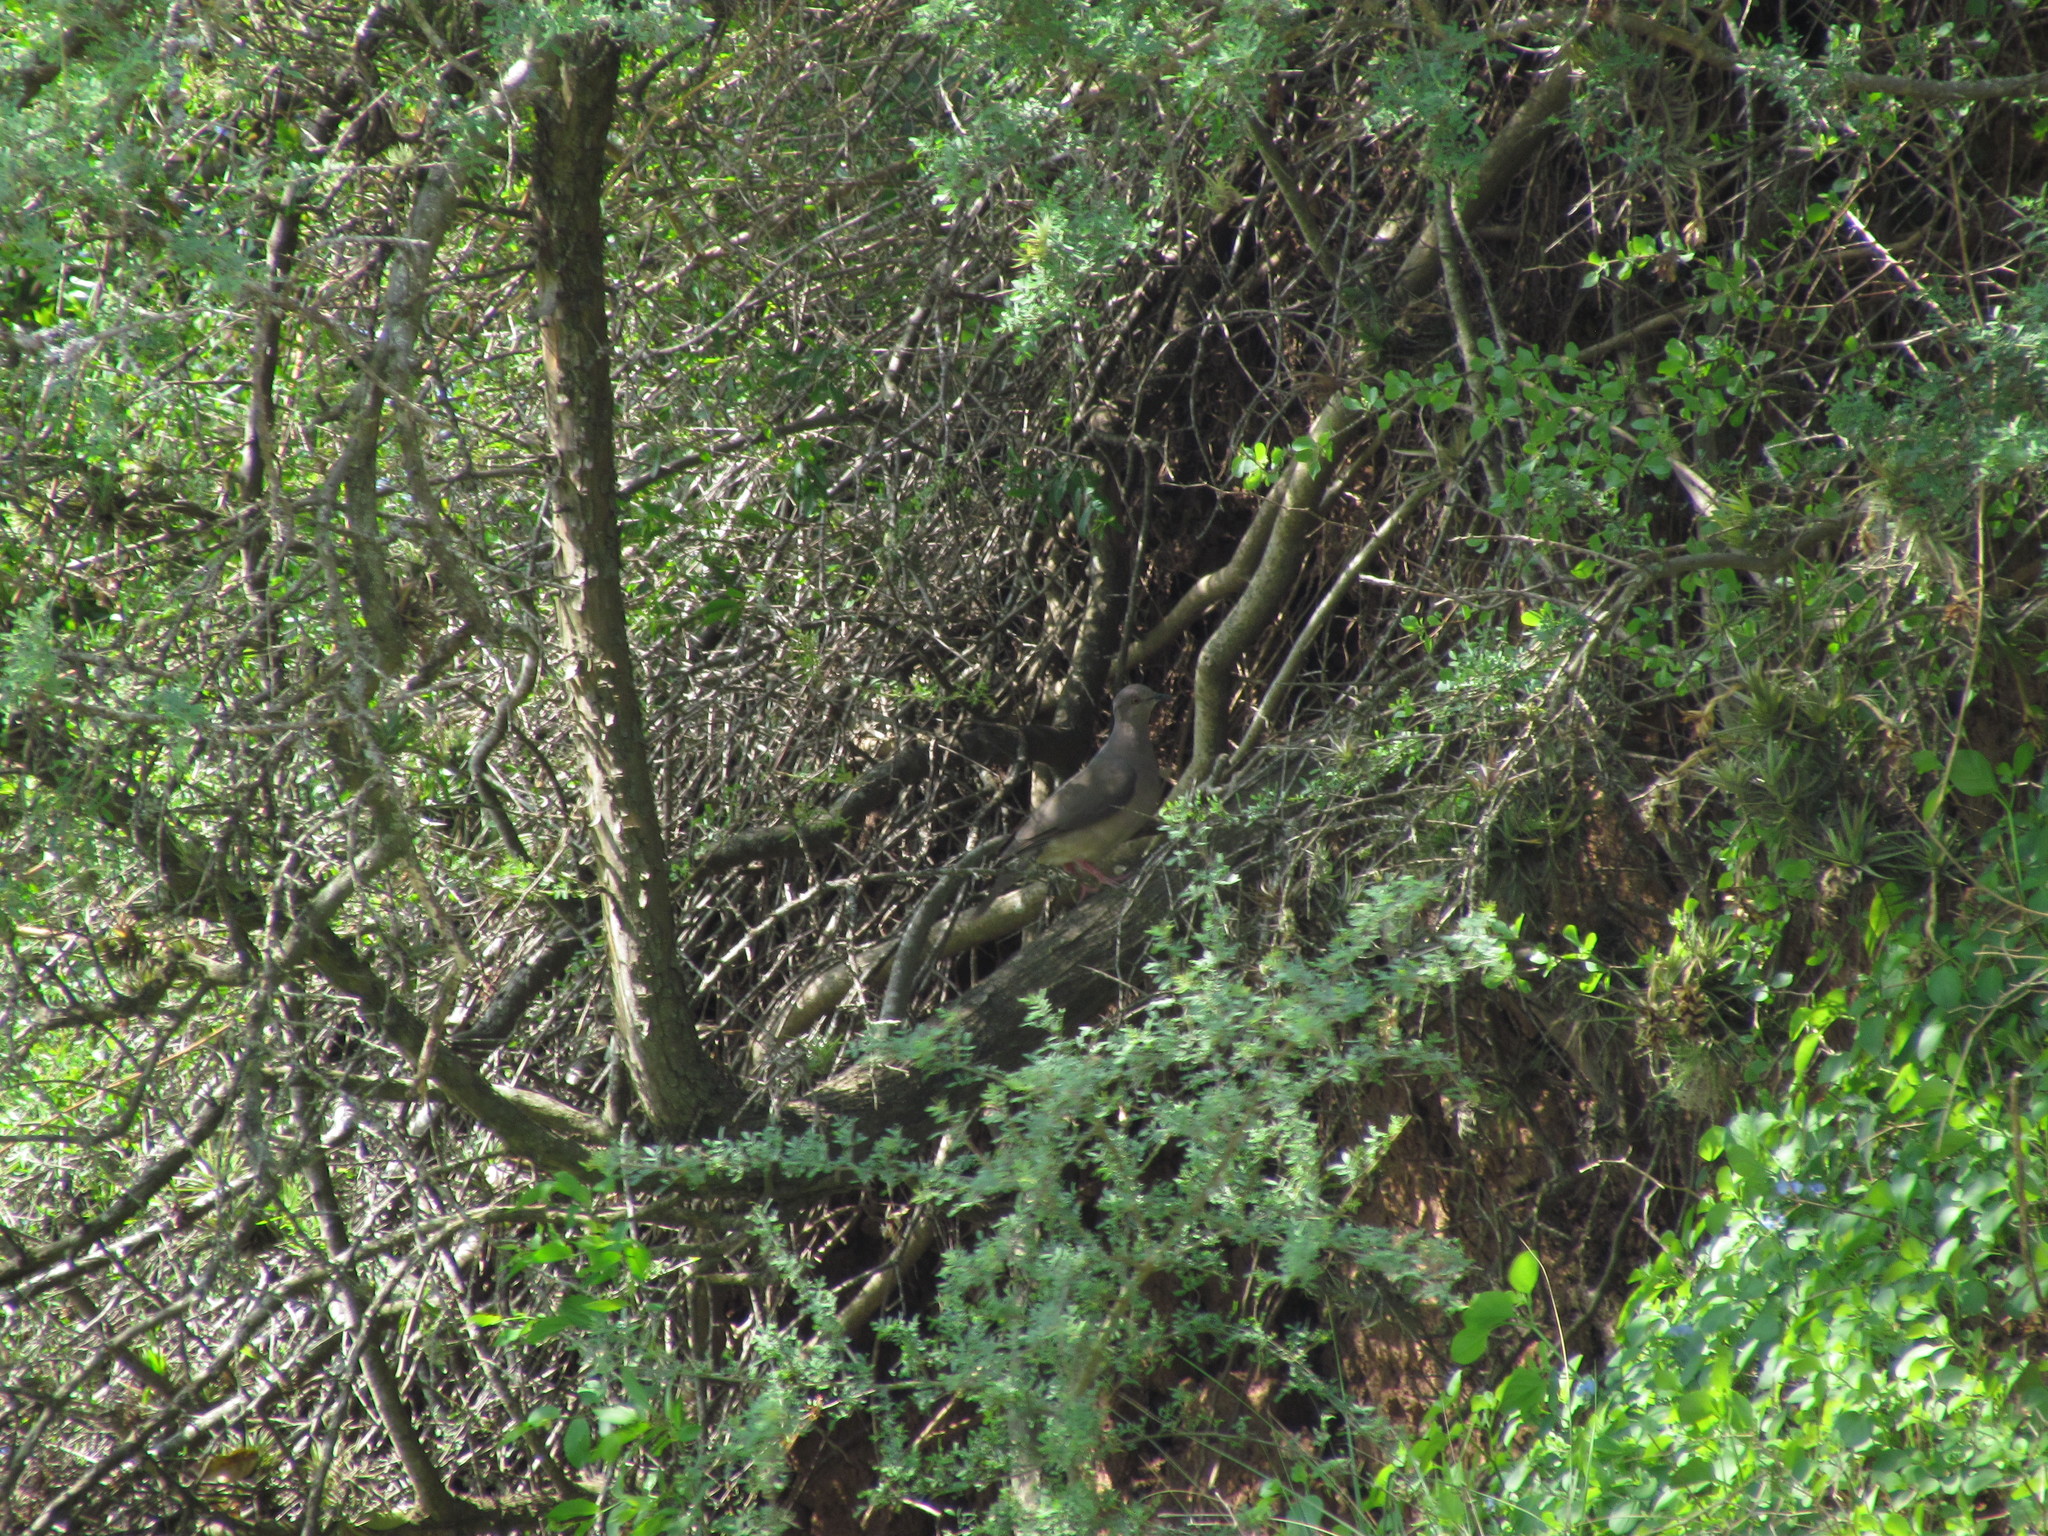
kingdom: Animalia
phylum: Chordata
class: Aves
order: Columbiformes
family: Columbidae
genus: Leptotila
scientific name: Leptotila verreauxi
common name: White-tipped dove
